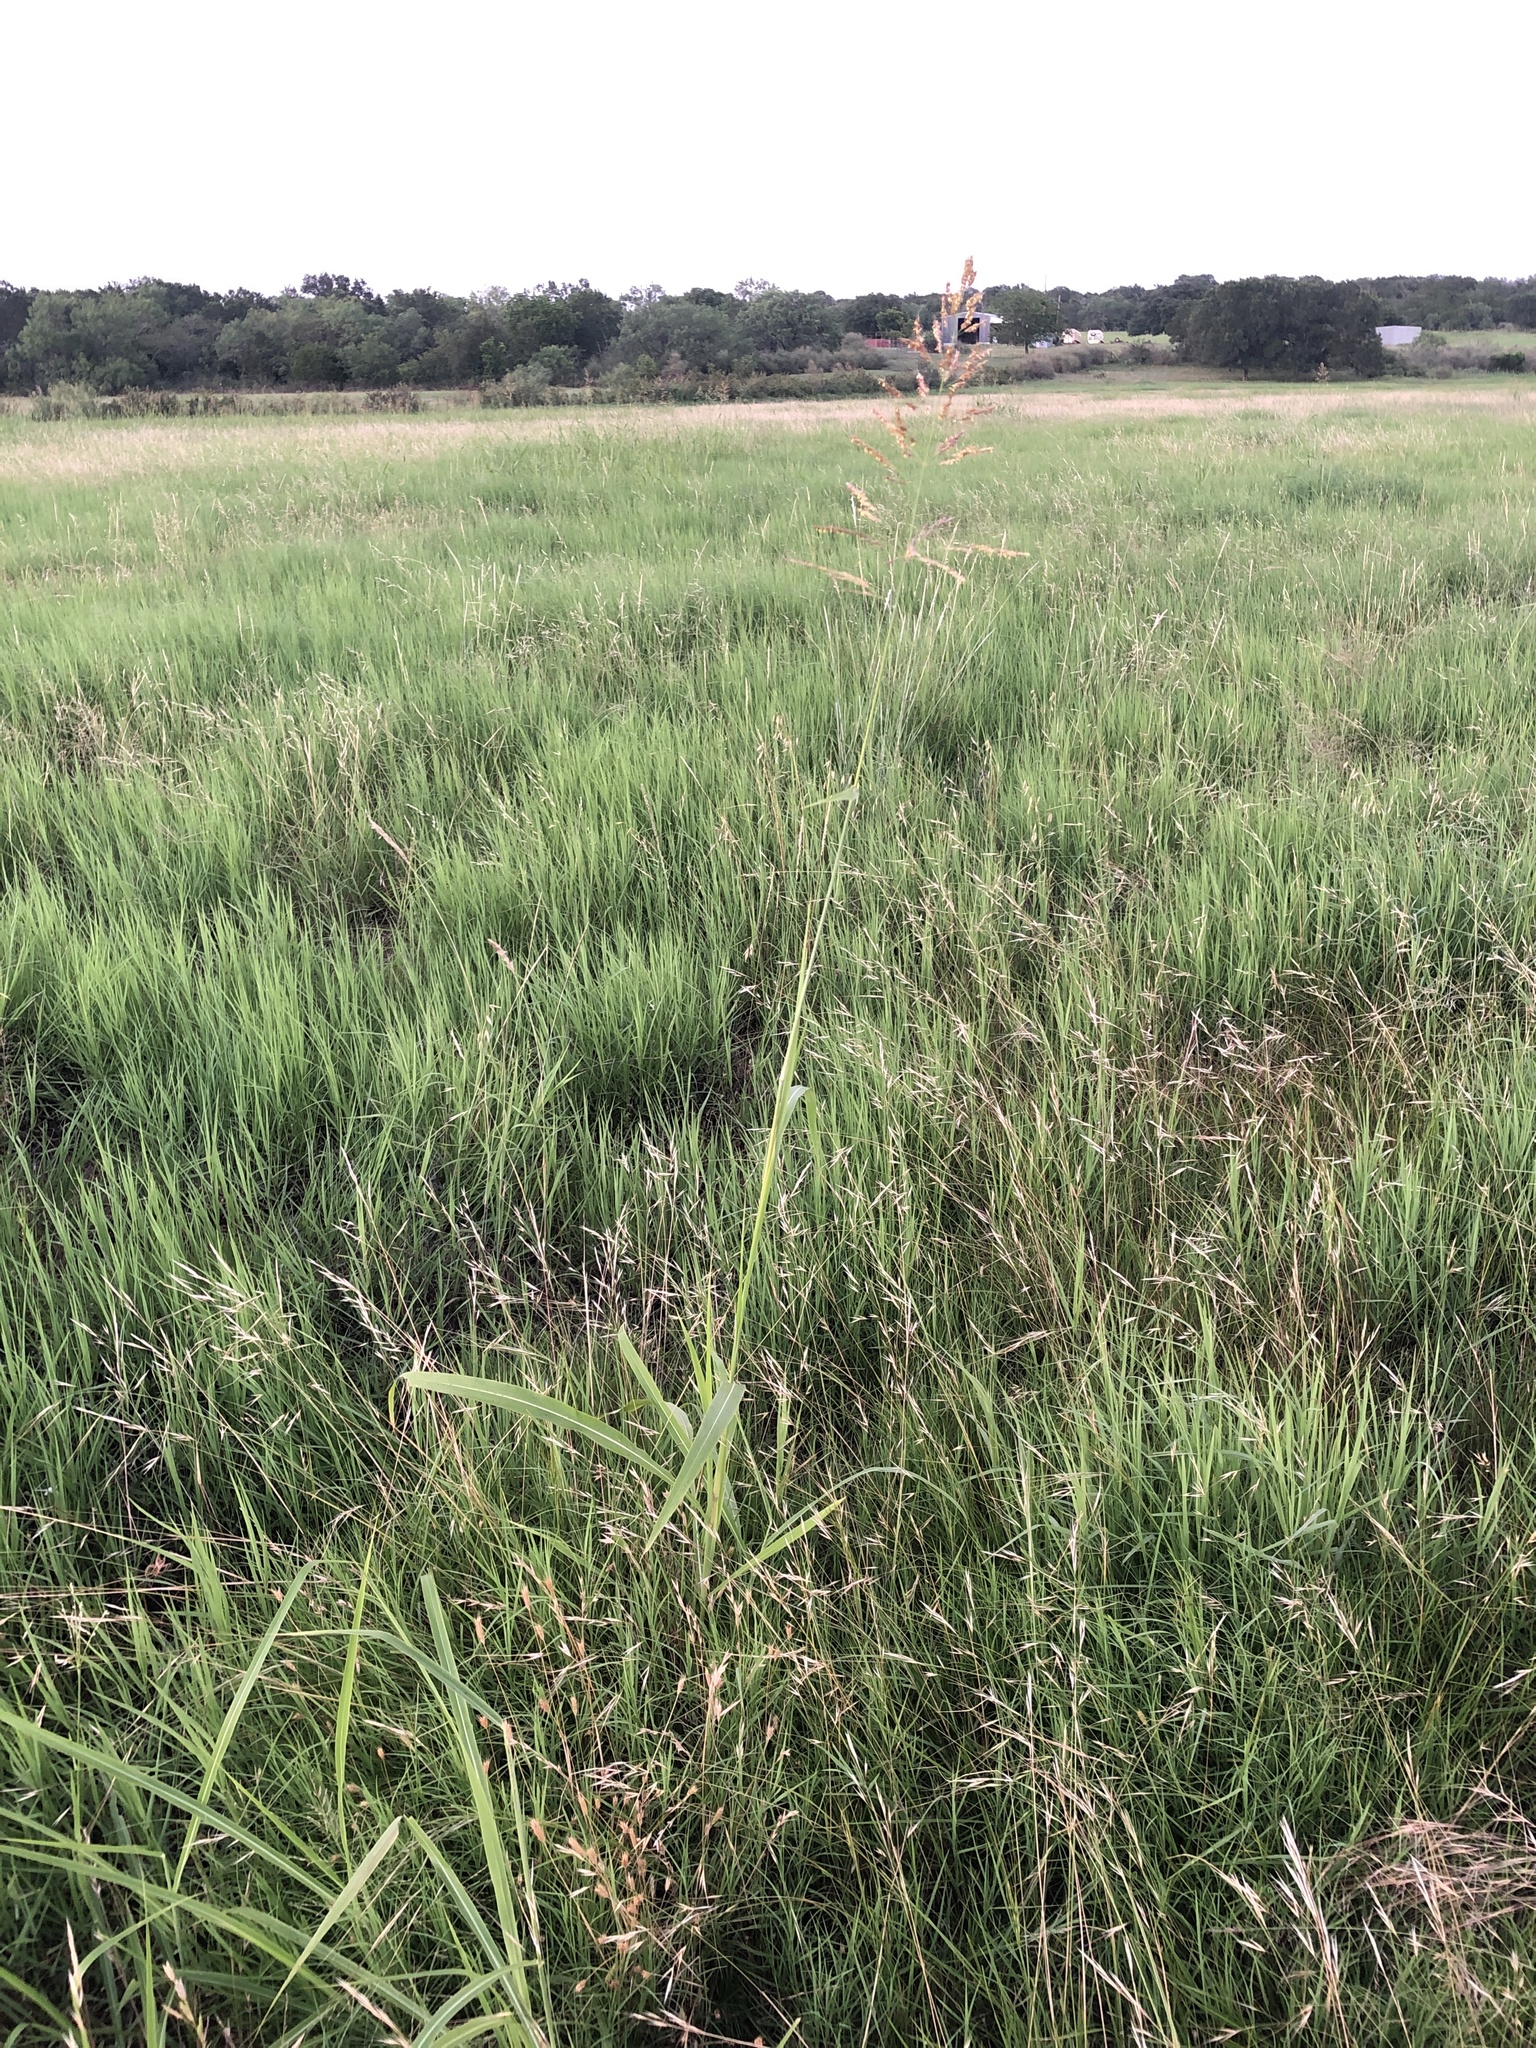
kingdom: Plantae
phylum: Tracheophyta
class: Liliopsida
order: Poales
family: Poaceae
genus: Sorghum
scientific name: Sorghum halepense
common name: Johnson-grass
